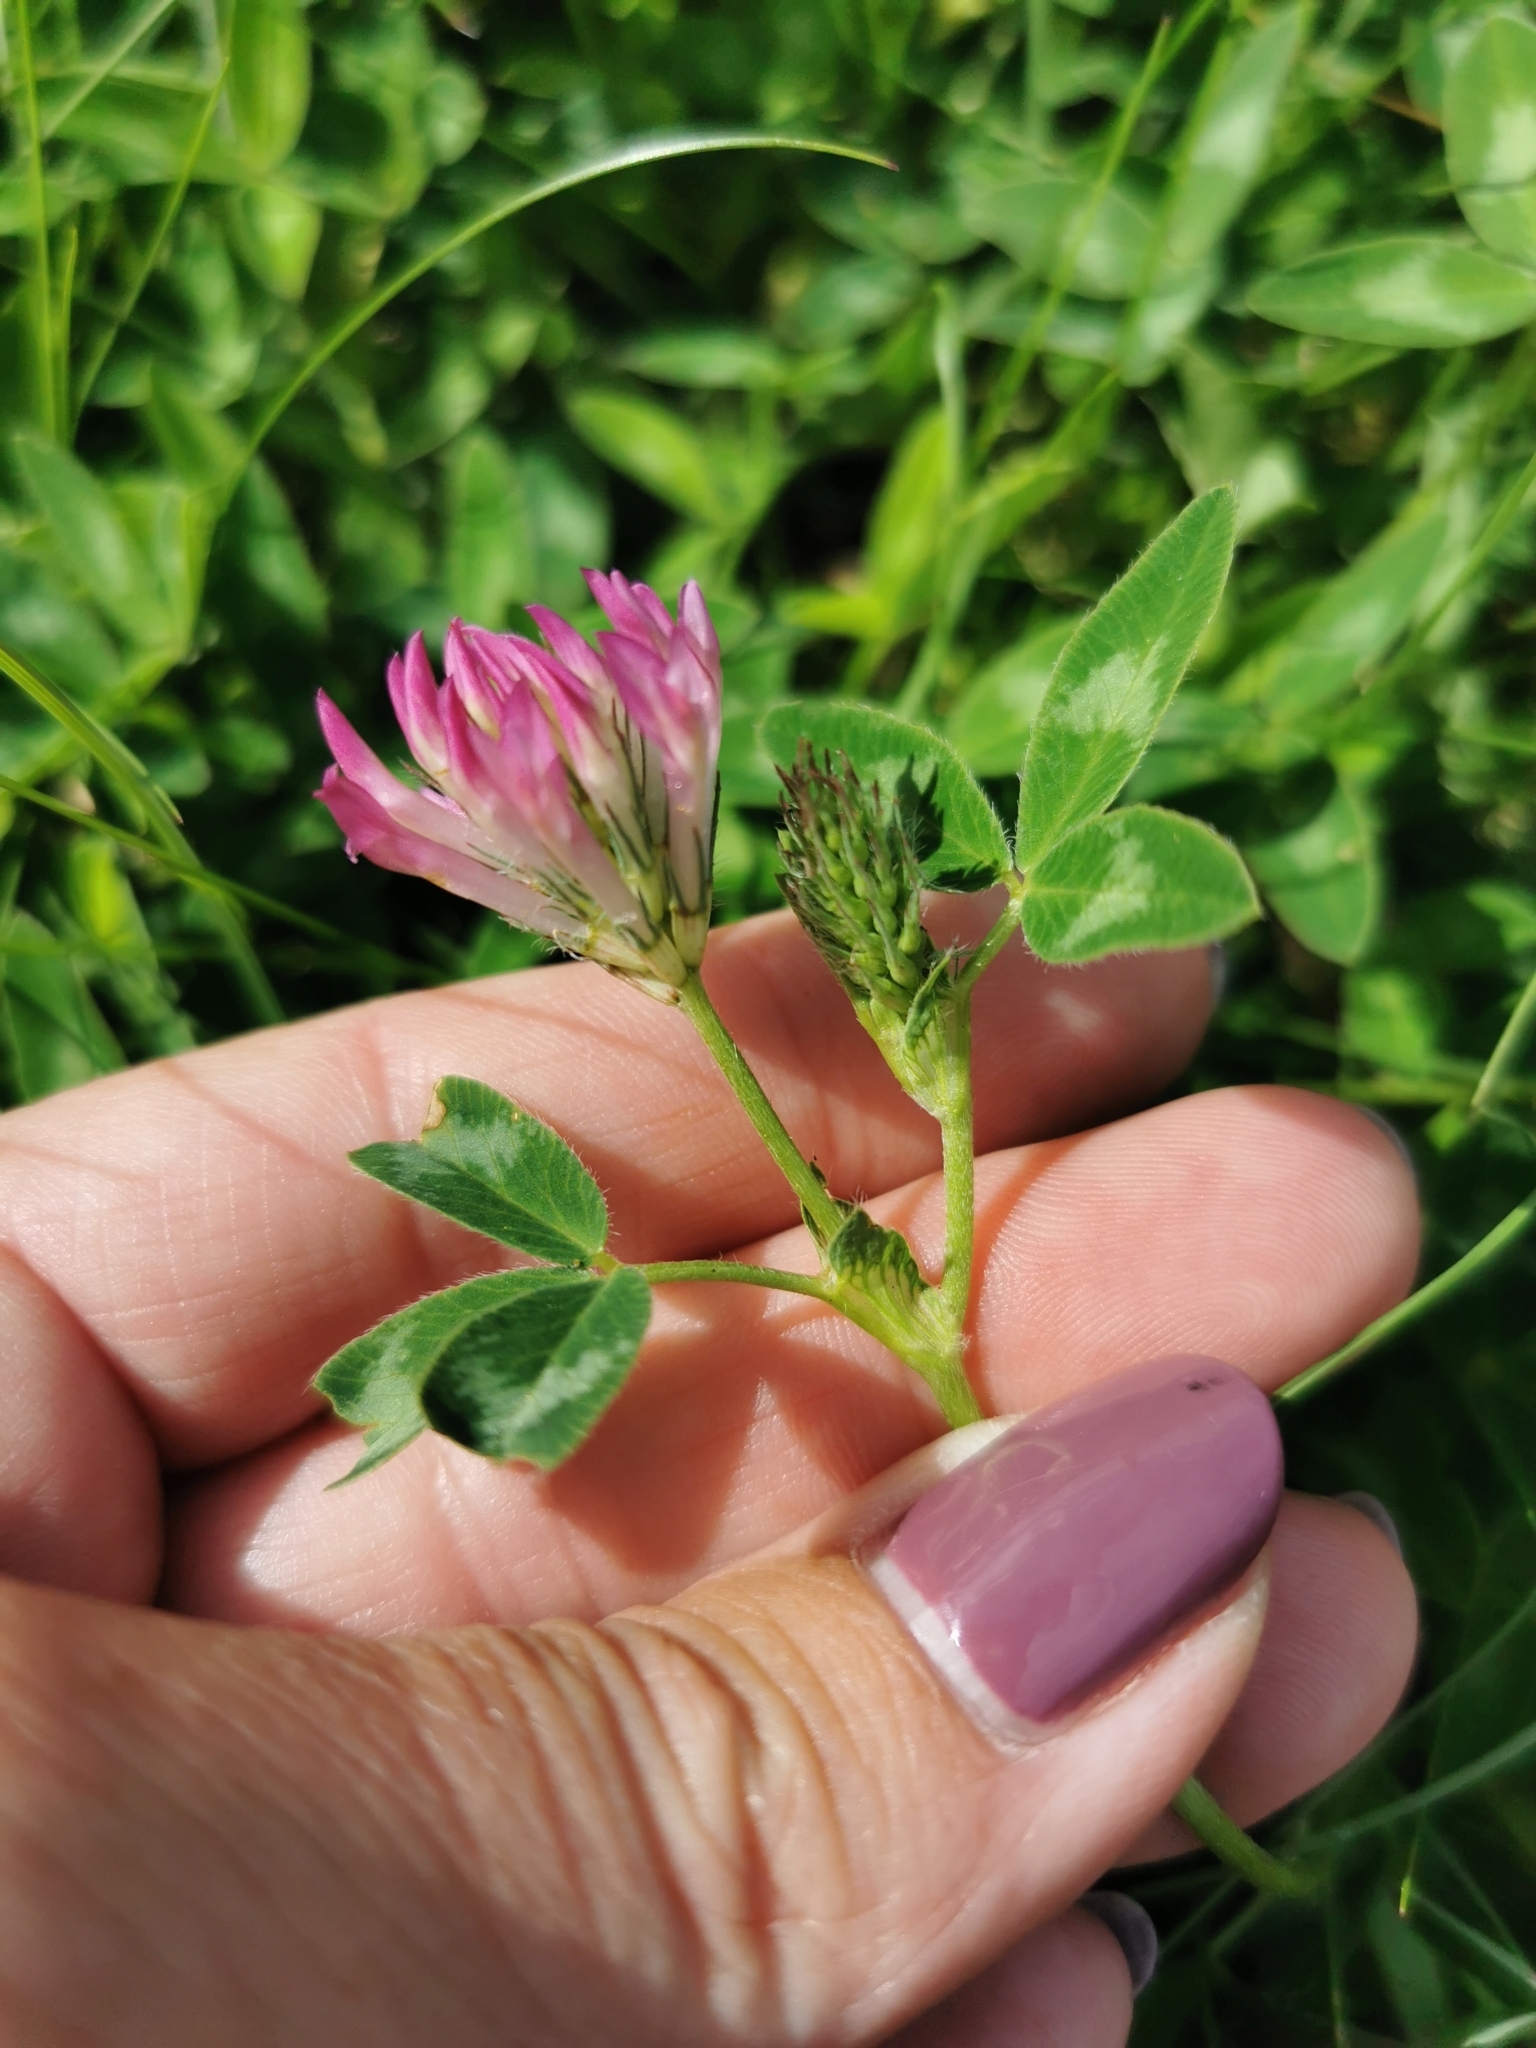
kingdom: Plantae
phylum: Tracheophyta
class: Magnoliopsida
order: Fabales
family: Fabaceae
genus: Trifolium
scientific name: Trifolium medium
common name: Zigzag clover
